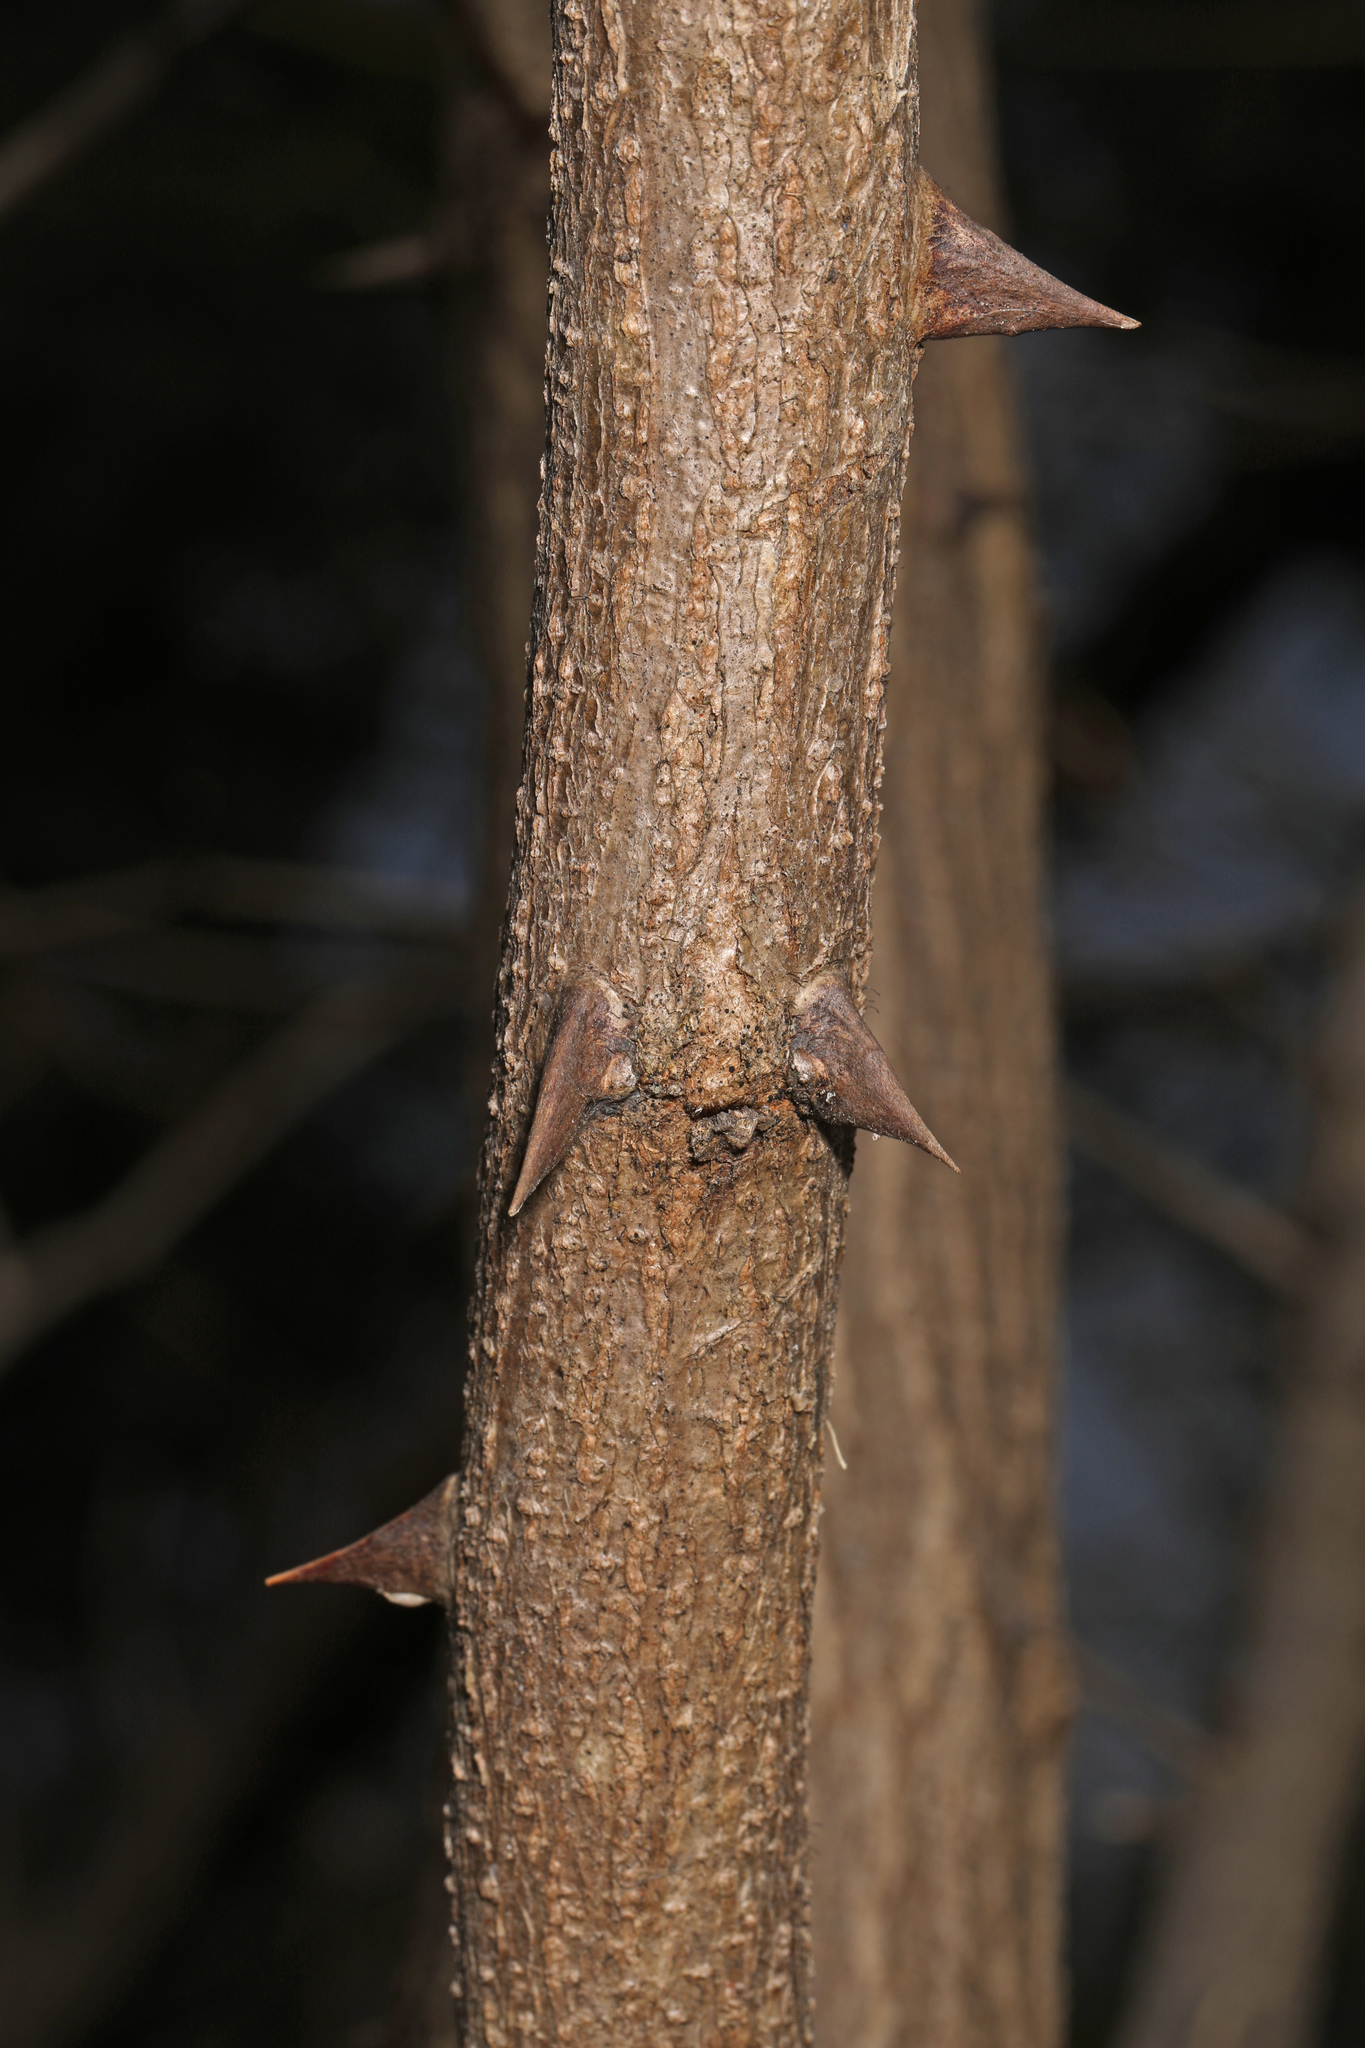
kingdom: Plantae
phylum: Tracheophyta
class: Magnoliopsida
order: Fabales
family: Fabaceae
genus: Robinia
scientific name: Robinia pseudoacacia
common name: Black locust
